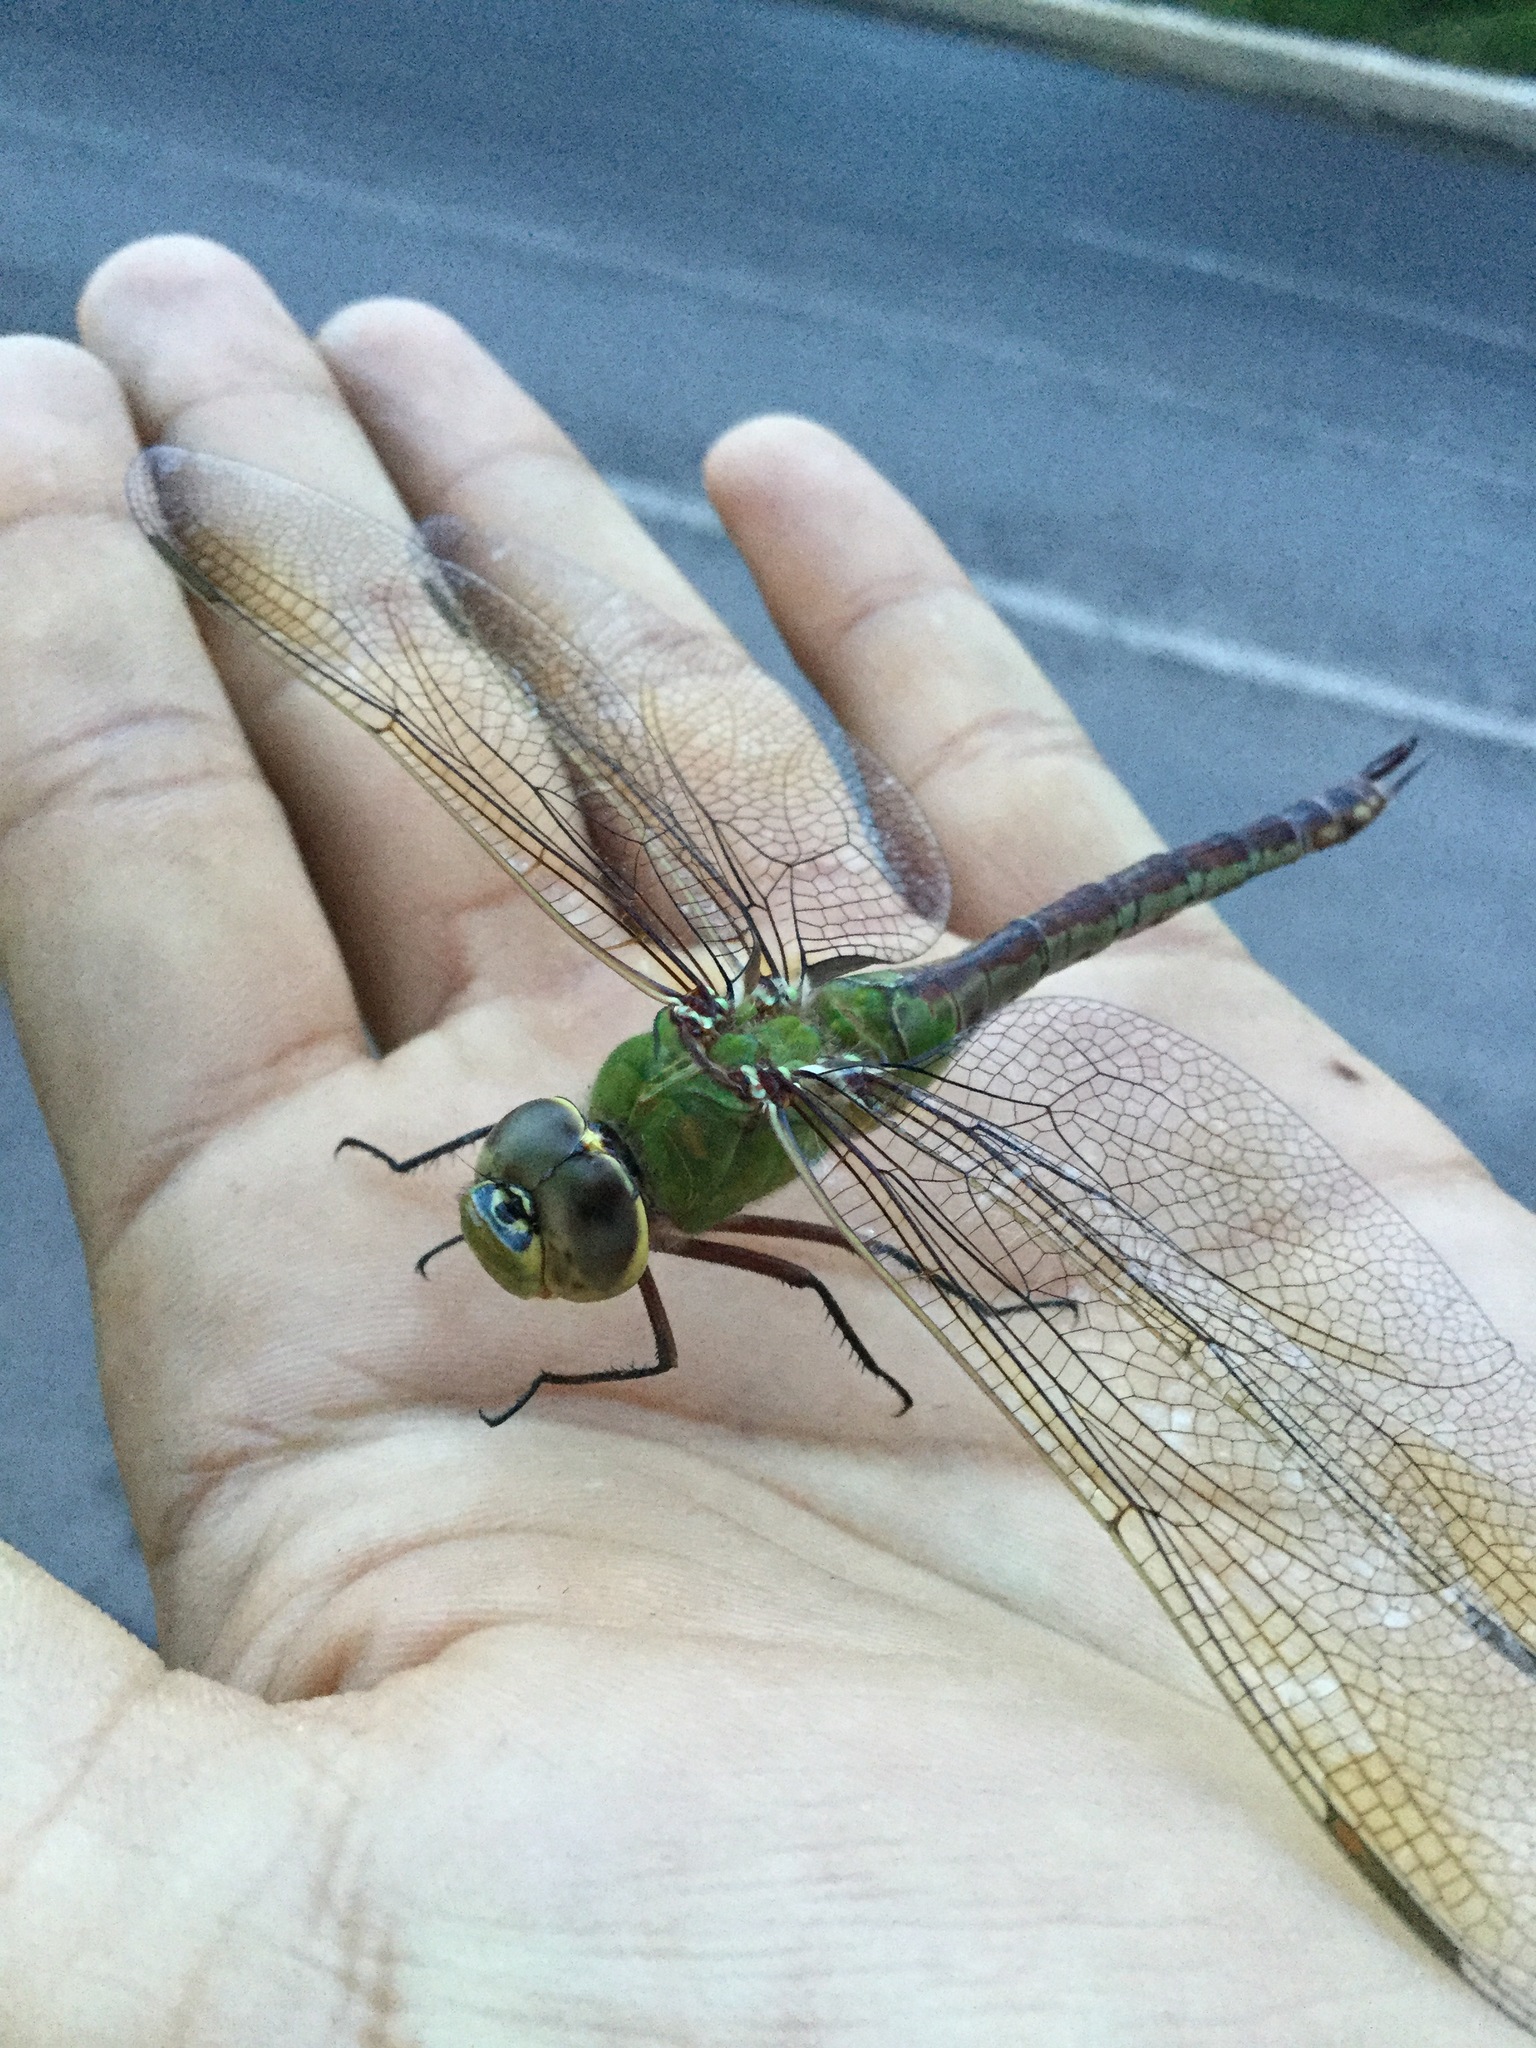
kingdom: Animalia
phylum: Arthropoda
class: Insecta
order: Odonata
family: Aeshnidae
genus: Anax
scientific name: Anax junius
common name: Common green darner
